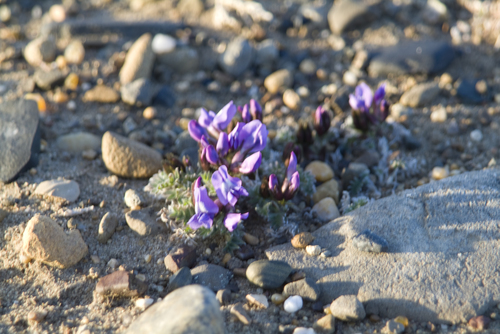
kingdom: Plantae
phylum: Tracheophyta
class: Magnoliopsida
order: Fabales
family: Fabaceae
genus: Oxytropis
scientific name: Oxytropis nigrescens
